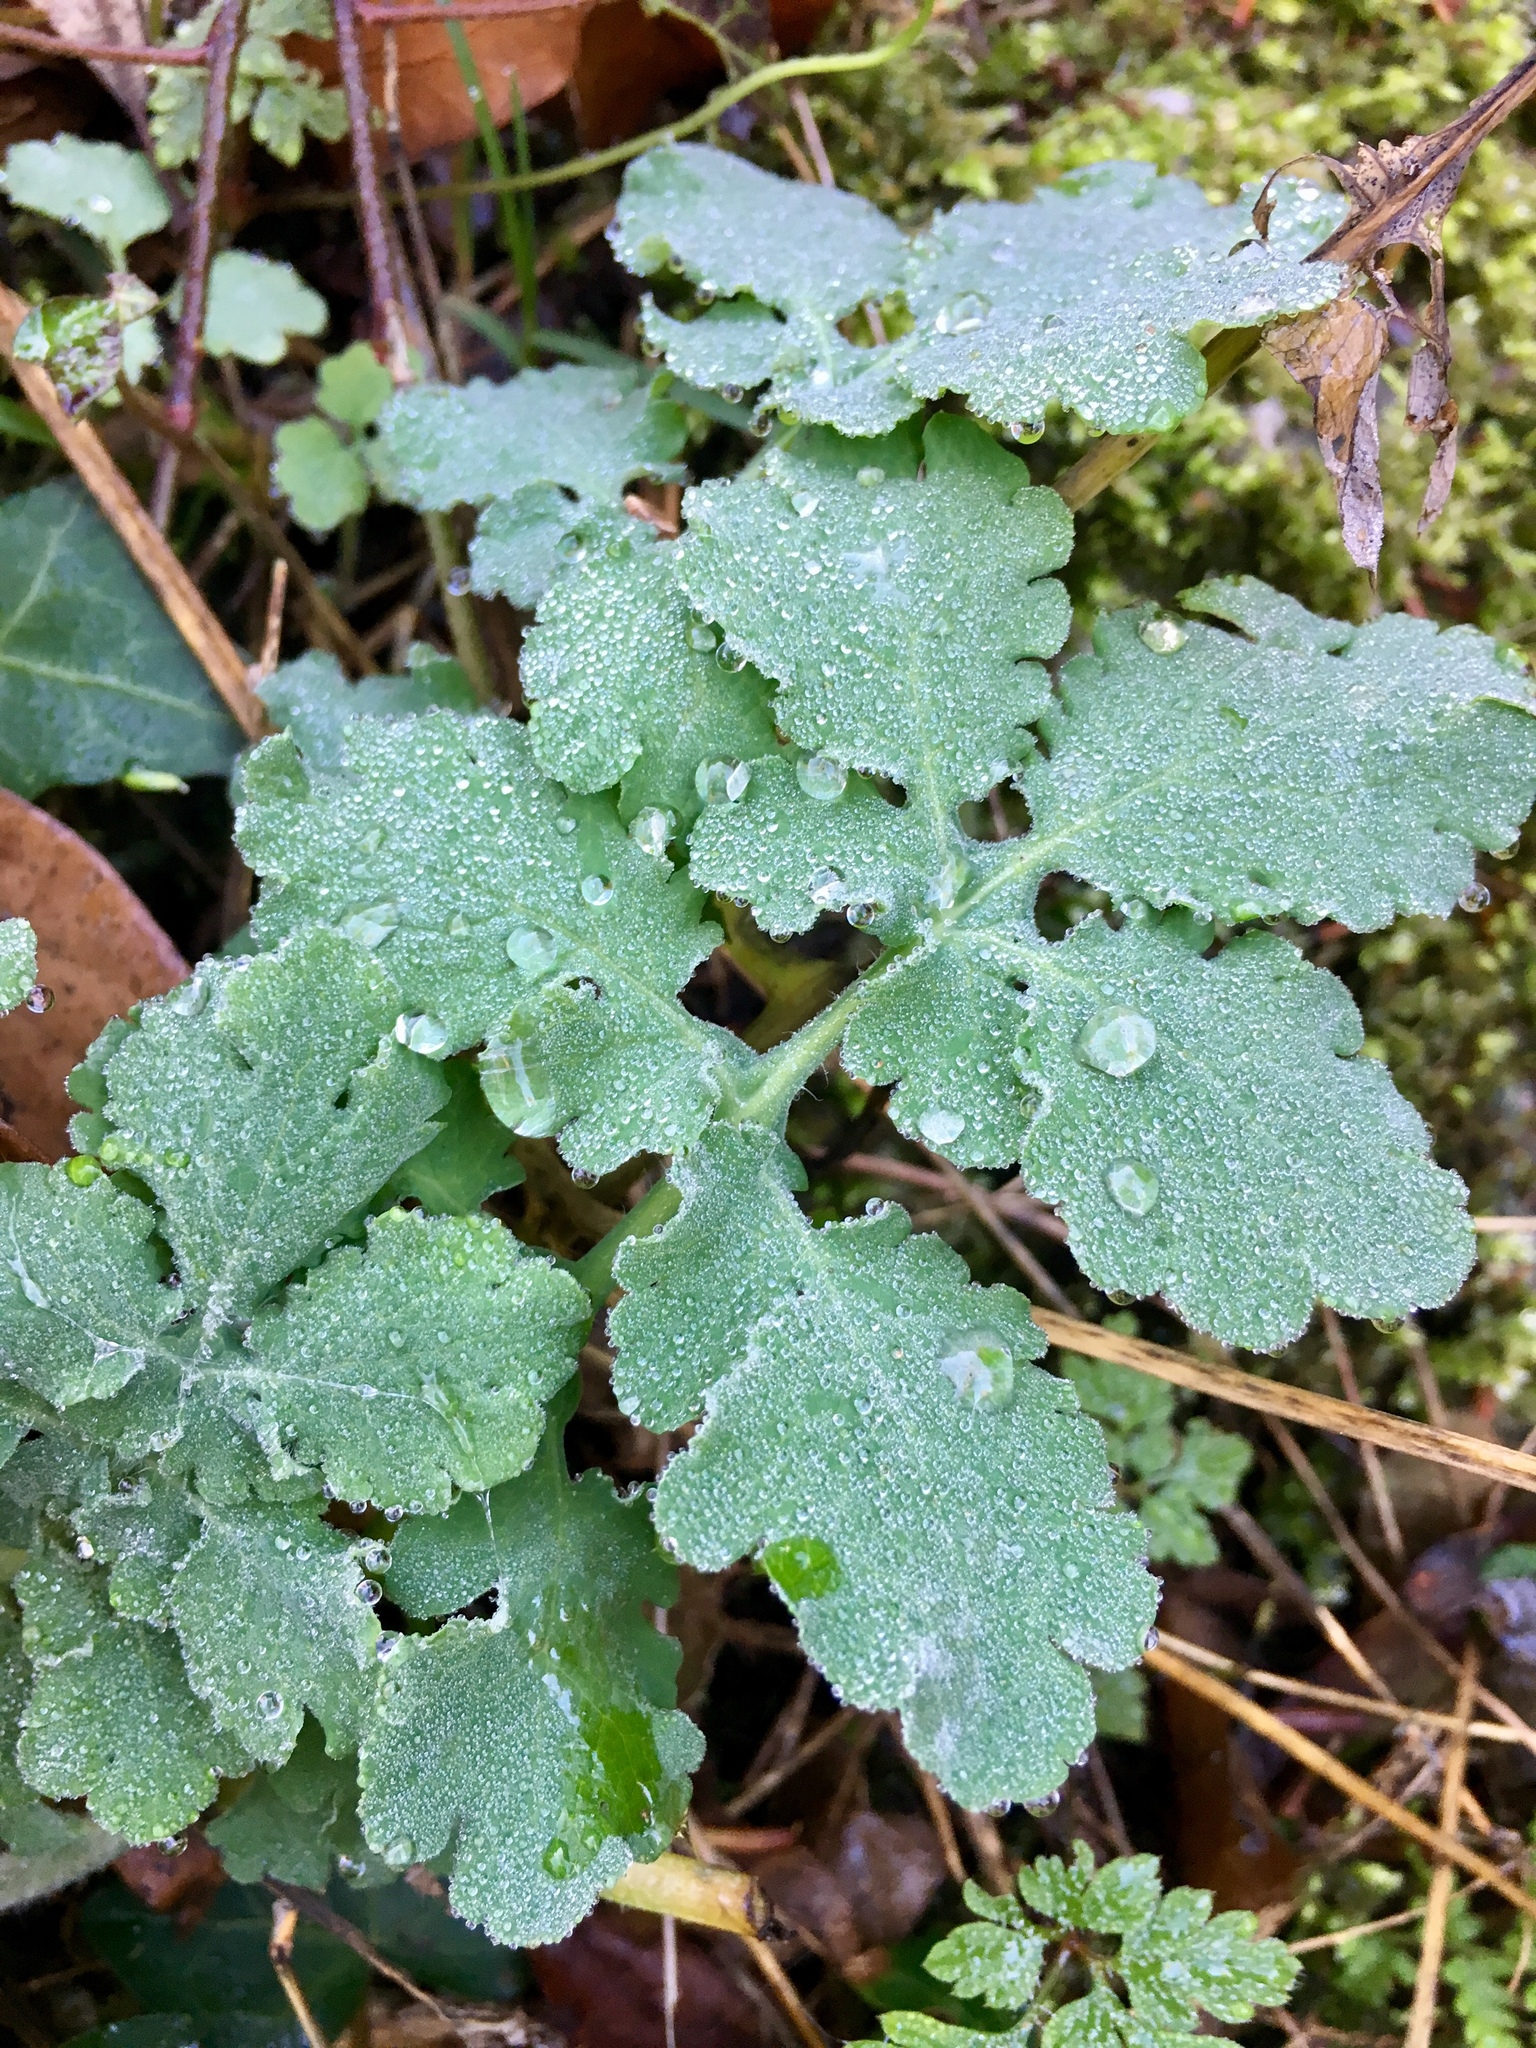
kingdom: Plantae
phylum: Tracheophyta
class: Magnoliopsida
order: Ranunculales
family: Papaveraceae
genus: Chelidonium
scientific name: Chelidonium majus
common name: Greater celandine
